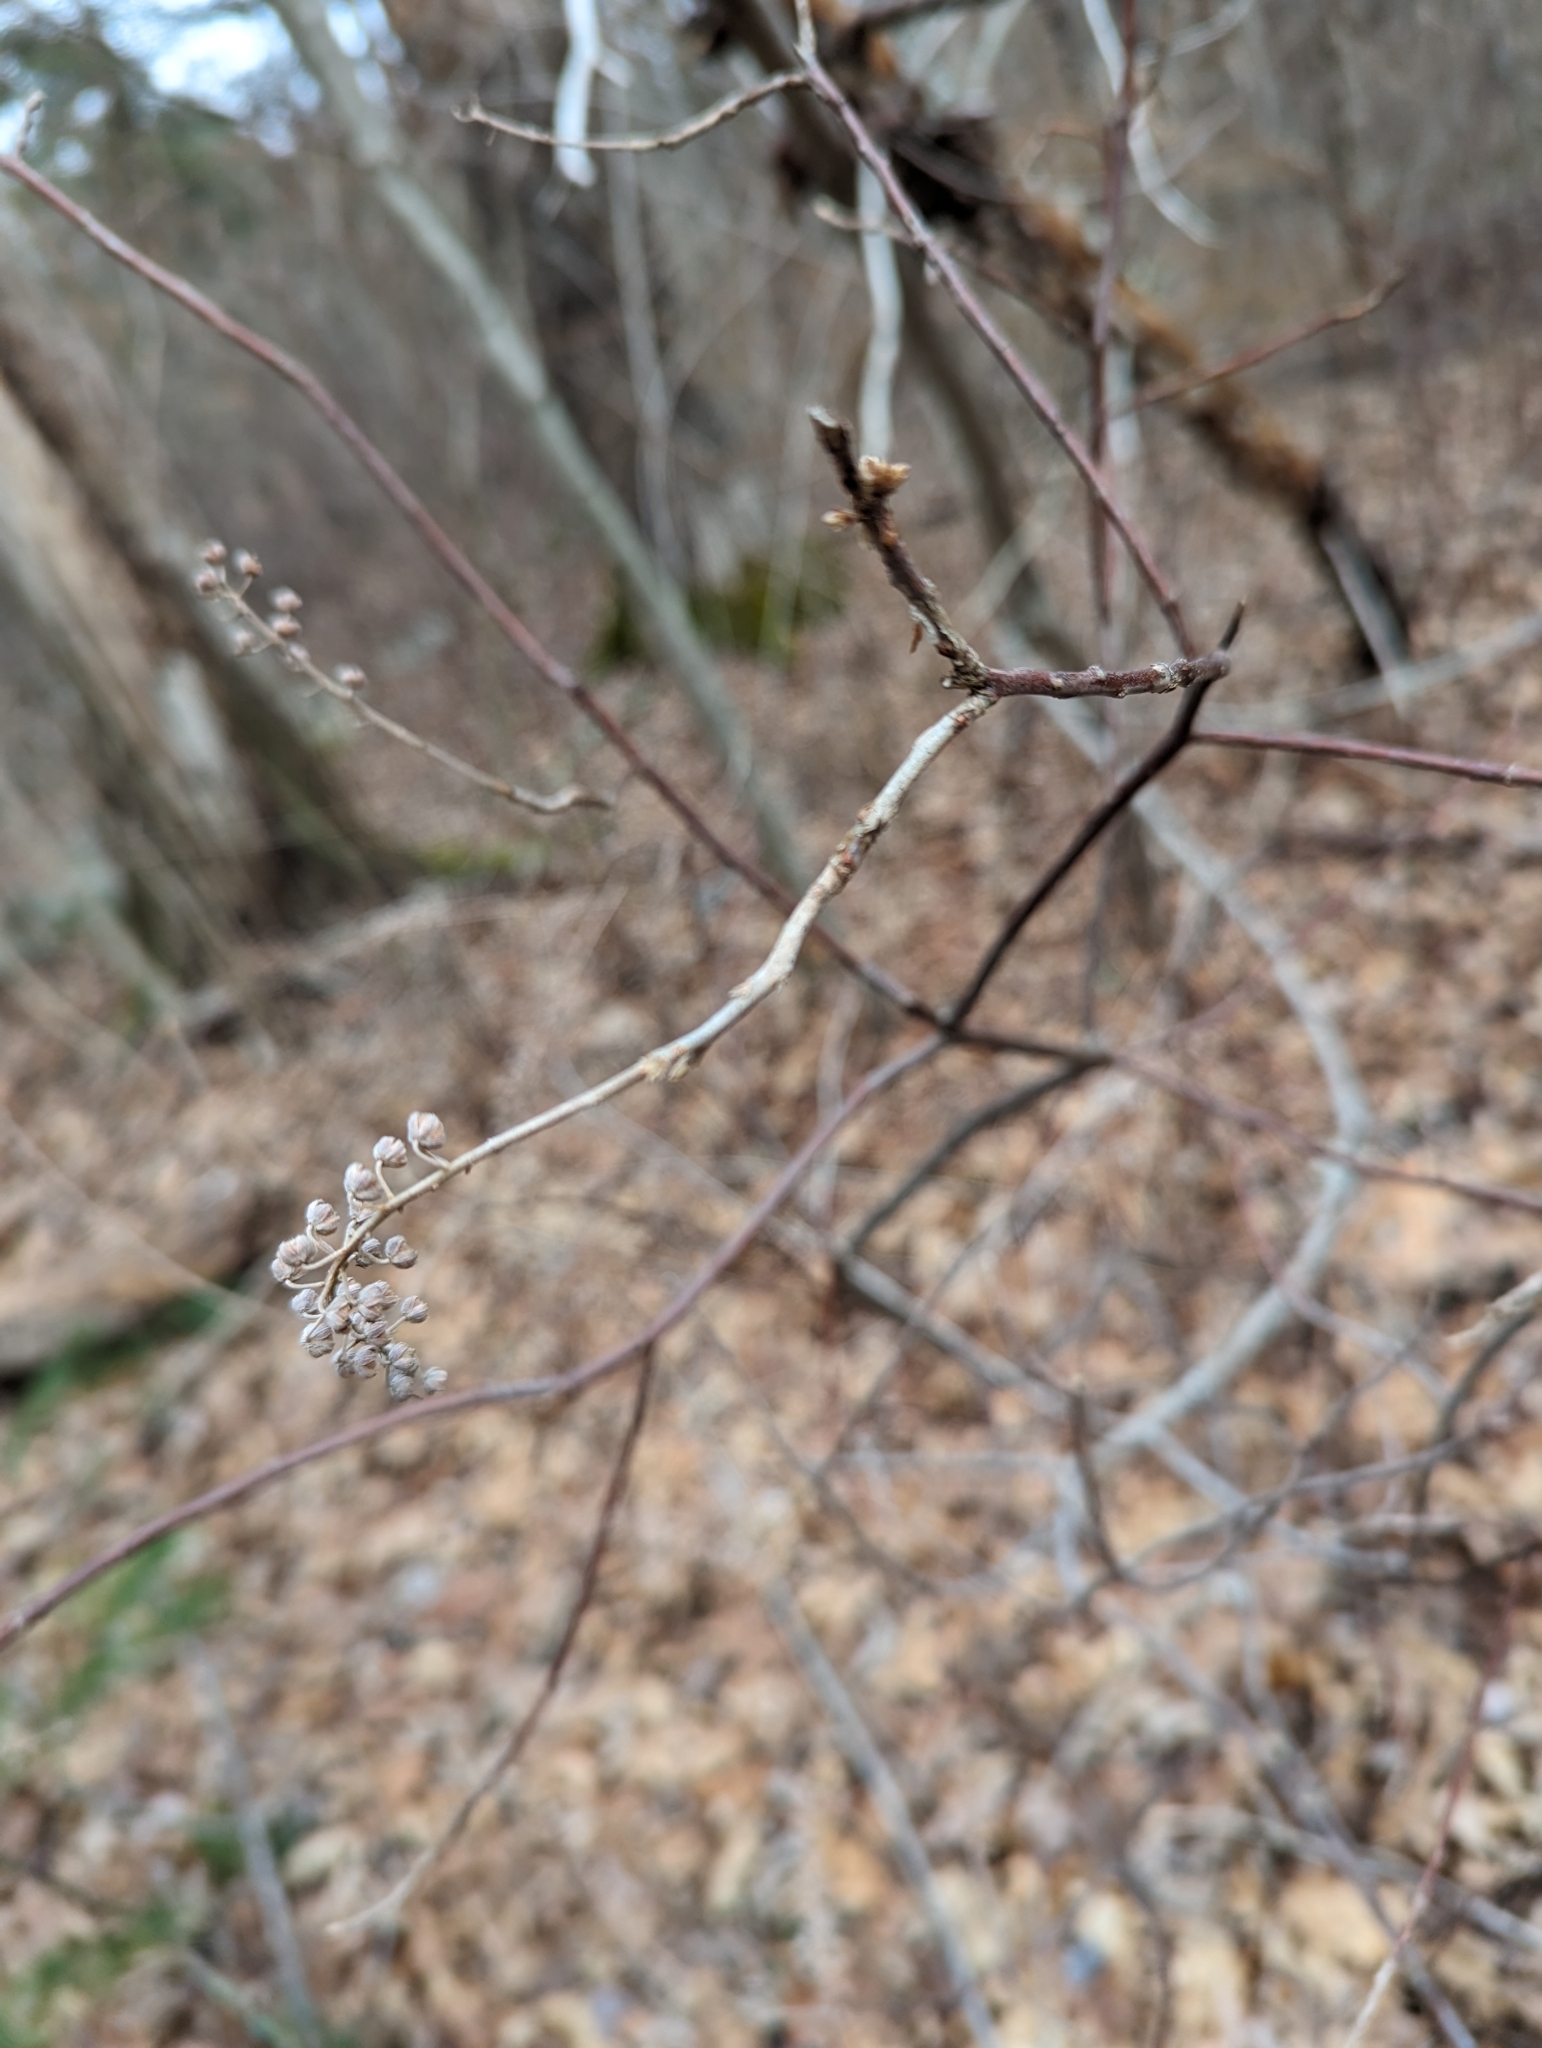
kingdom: Plantae
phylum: Tracheophyta
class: Magnoliopsida
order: Ericales
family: Clethraceae
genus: Clethra
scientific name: Clethra alnifolia
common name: Sweet pepperbush
